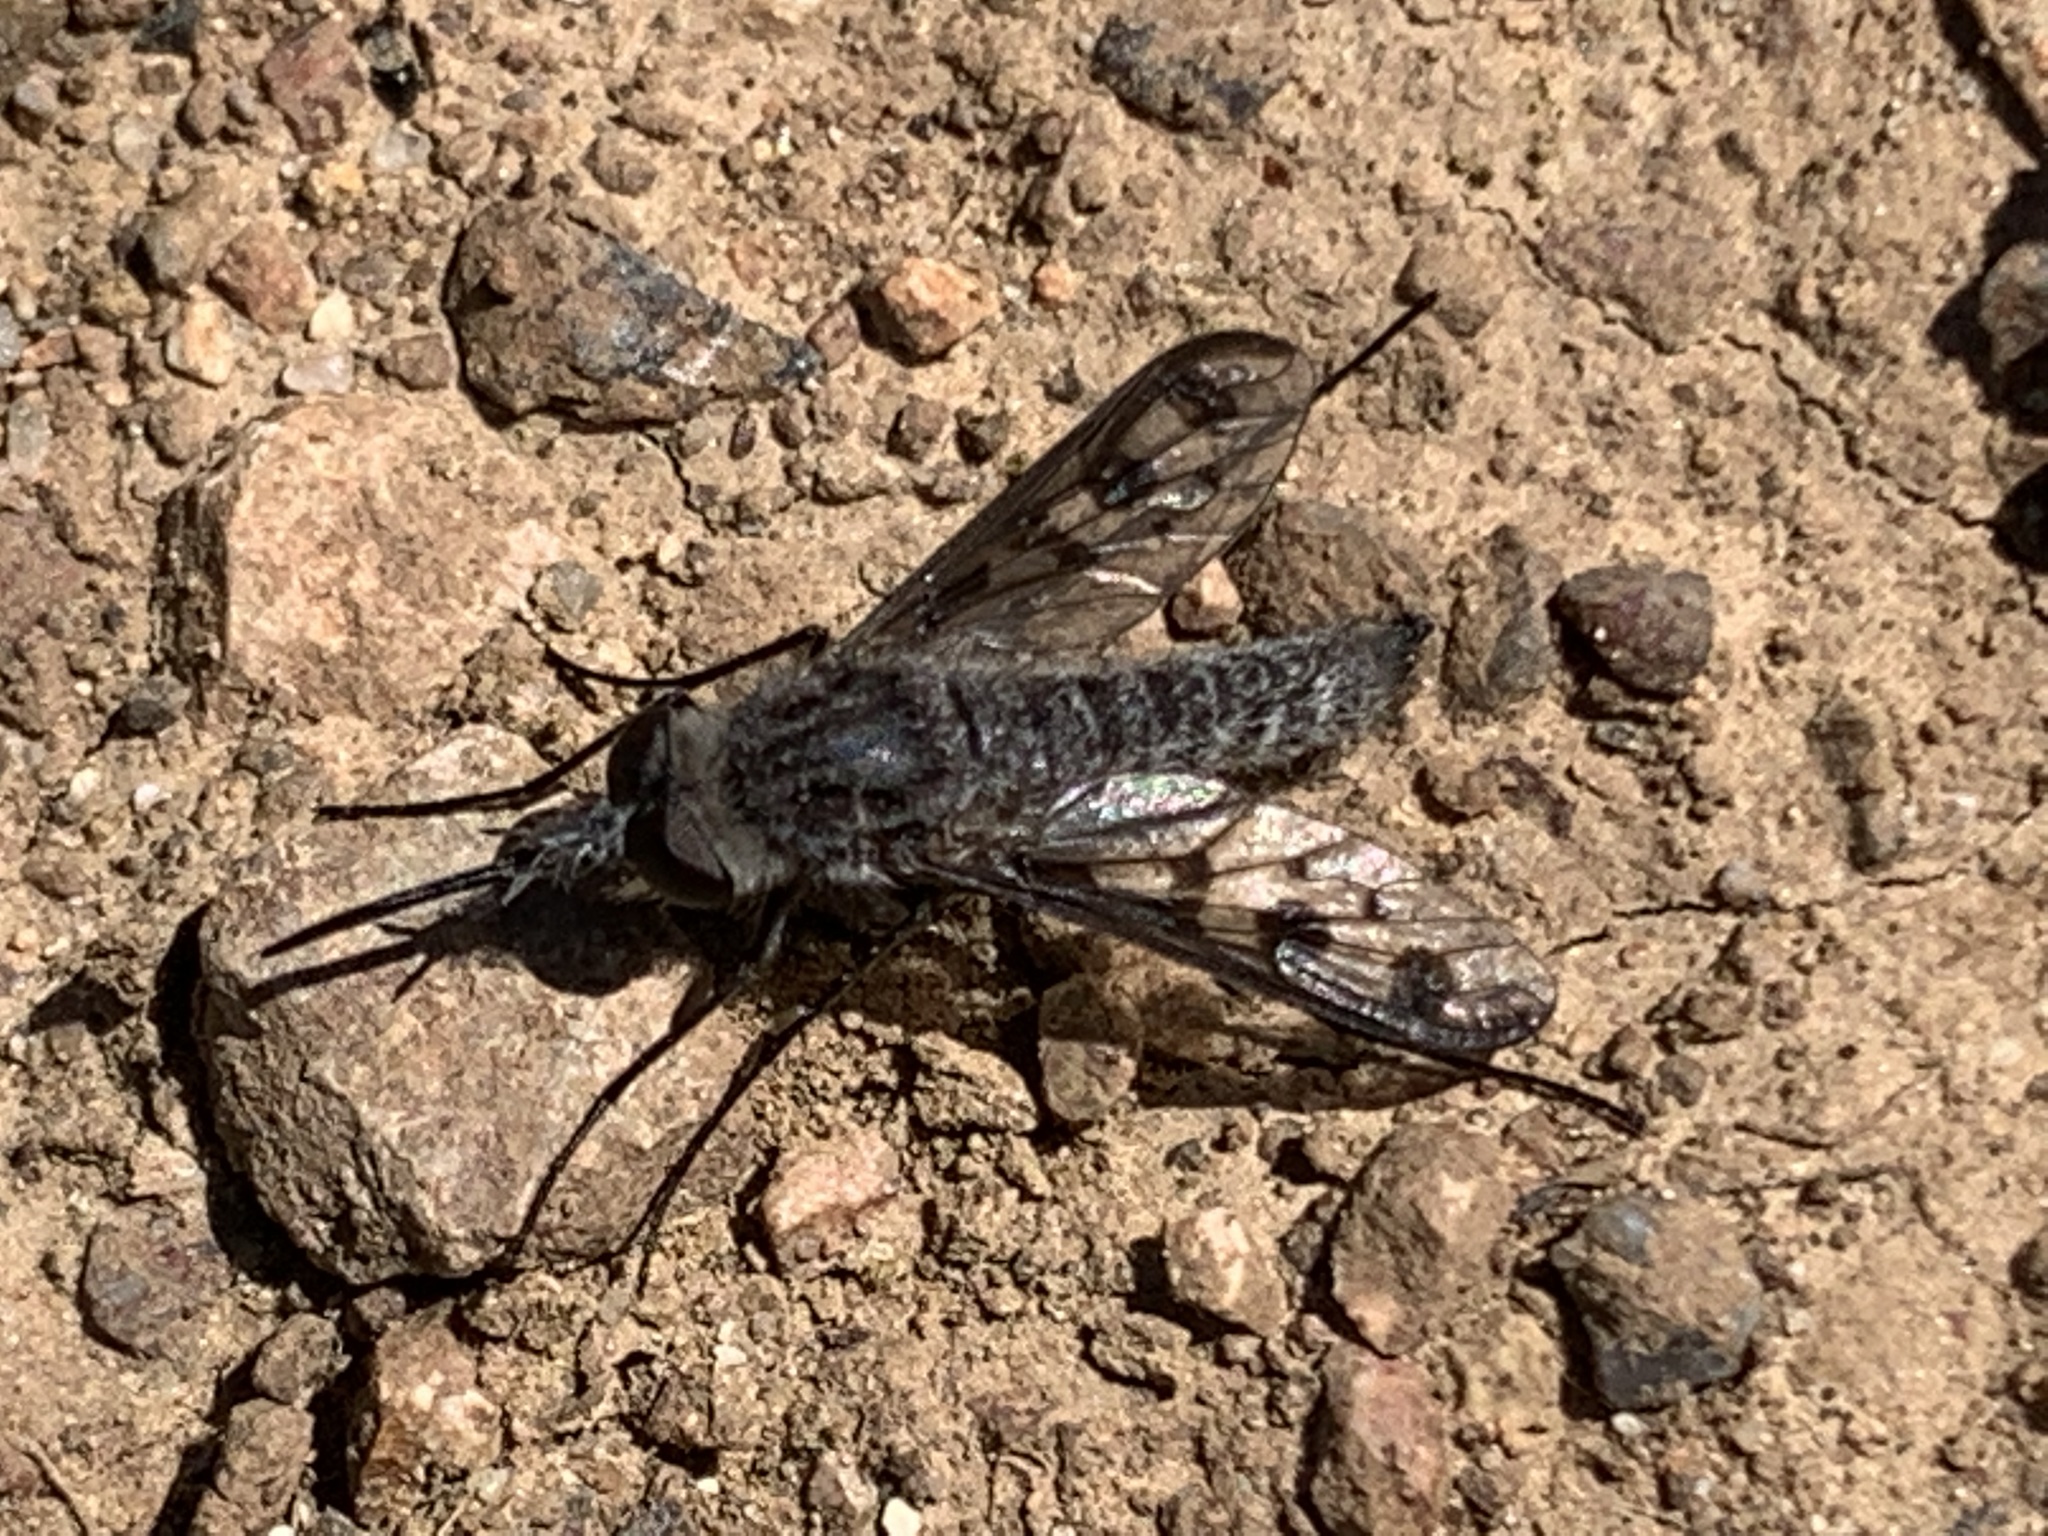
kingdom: Animalia
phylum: Arthropoda
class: Insecta
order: Diptera
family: Bombyliidae
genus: Thevenetimyia
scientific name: Thevenetimyia tridentata
